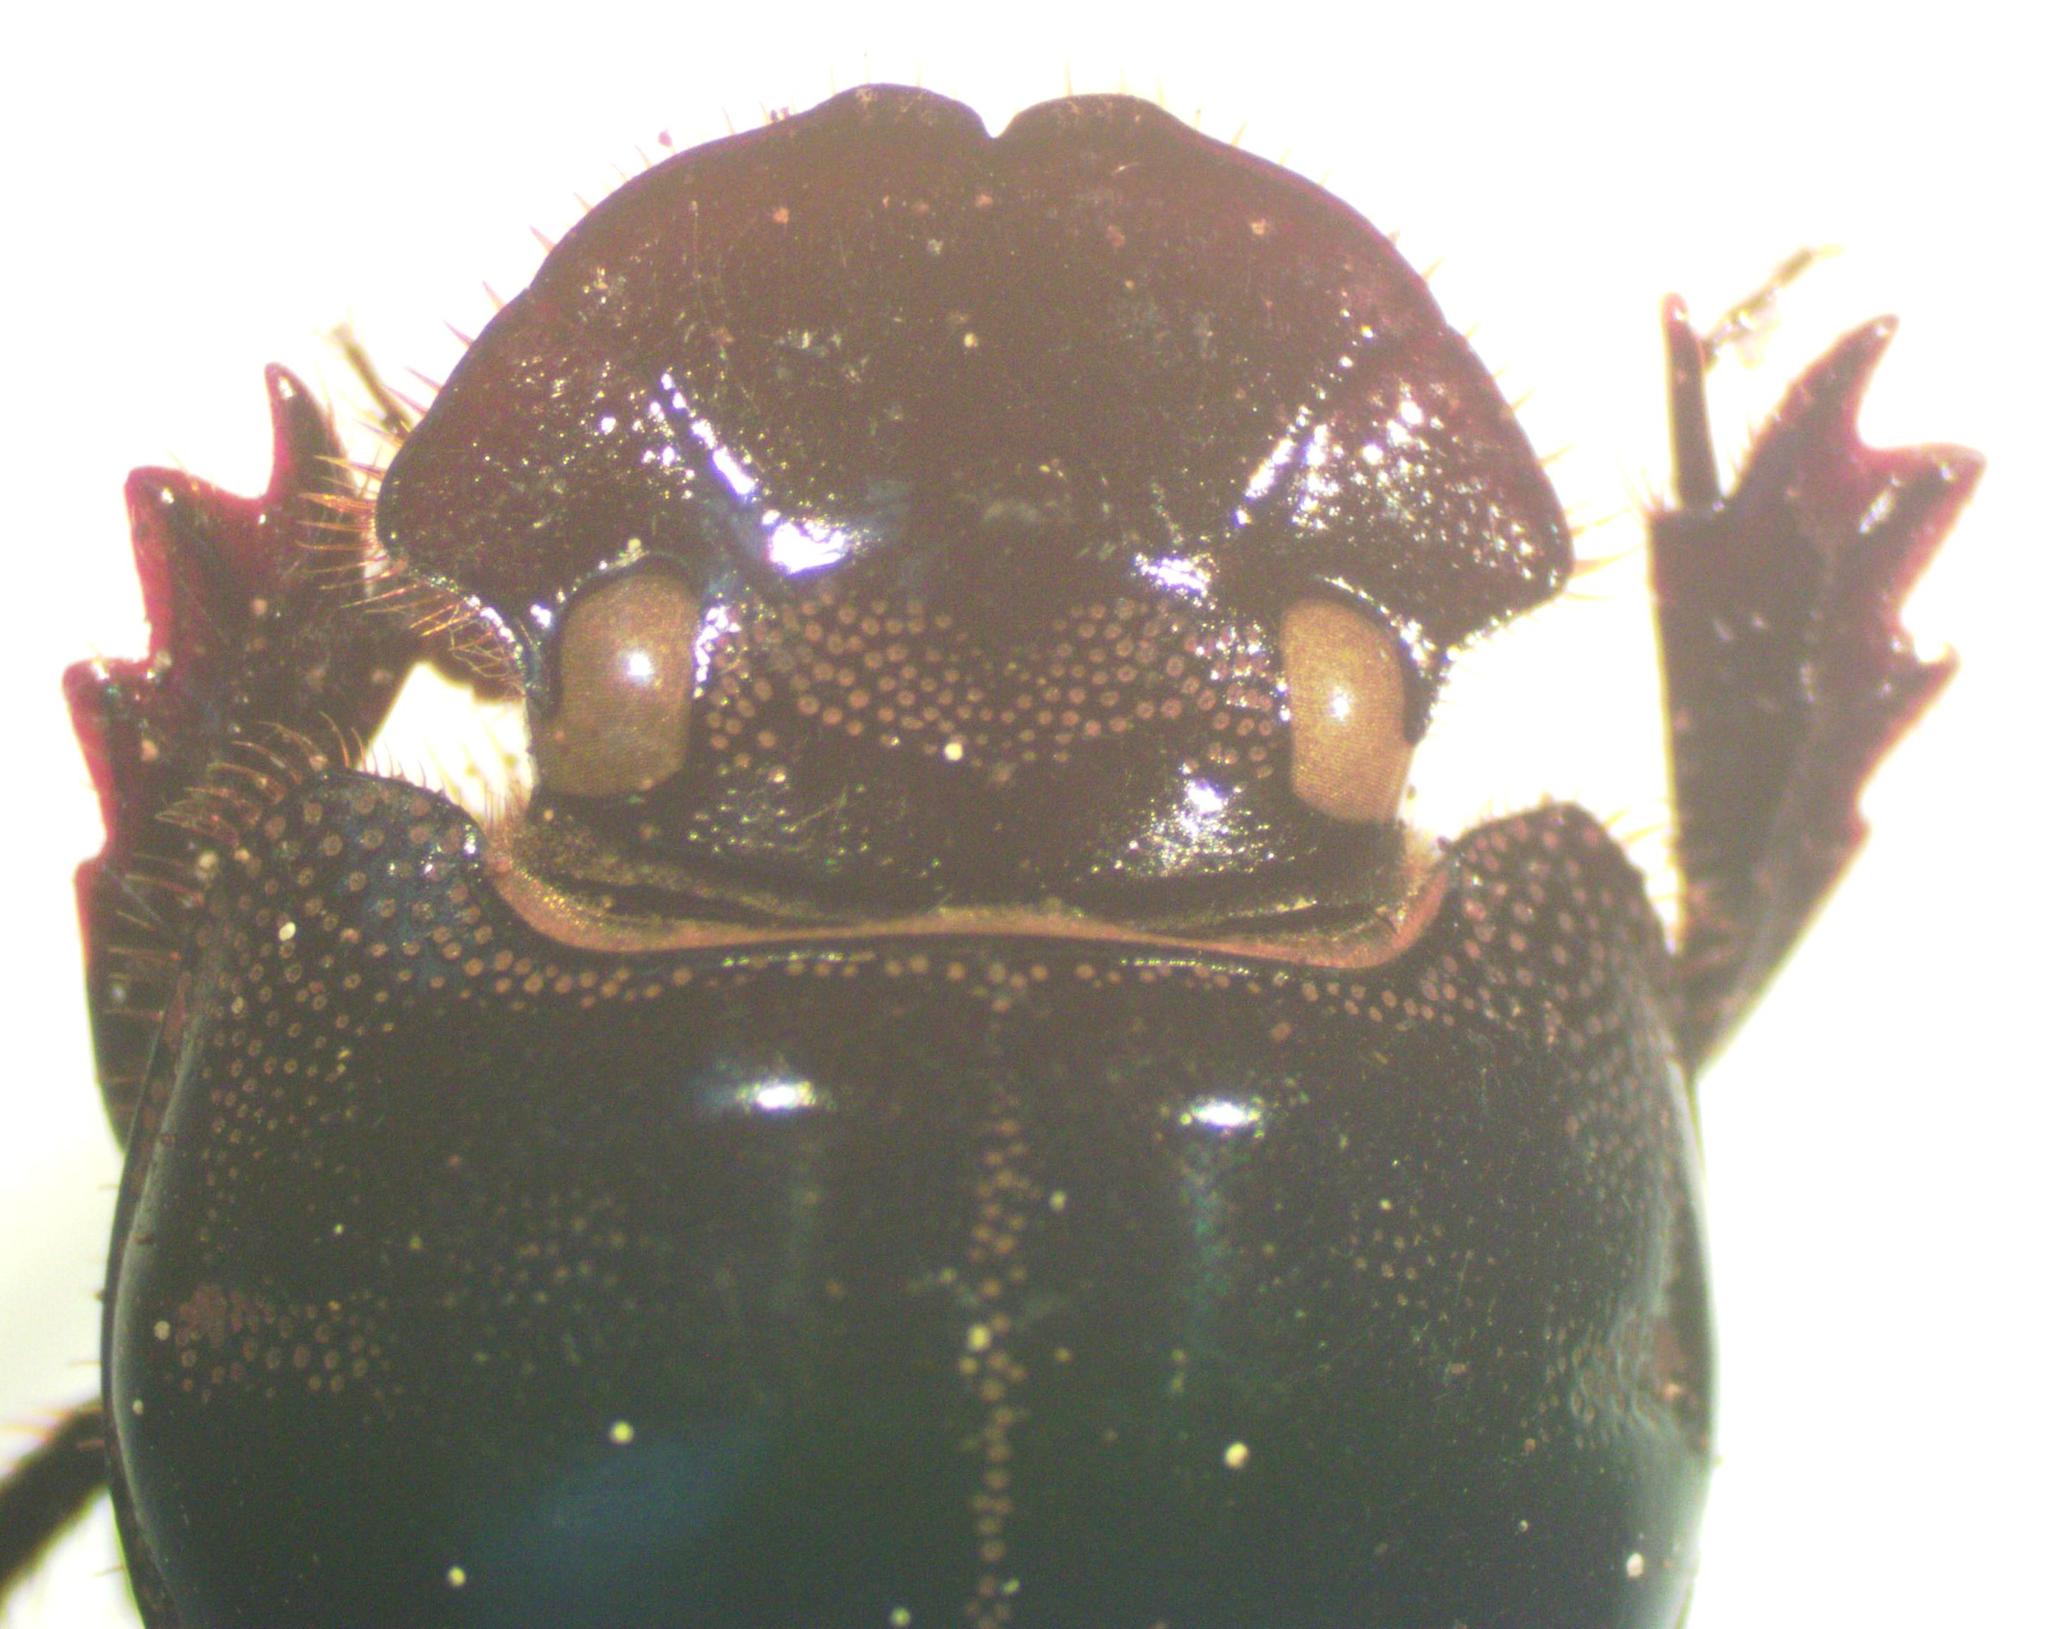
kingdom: Animalia
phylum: Arthropoda
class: Insecta
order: Coleoptera
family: Scarabaeidae
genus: Copris
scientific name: Copris incertus
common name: Uncertain dung beetle
